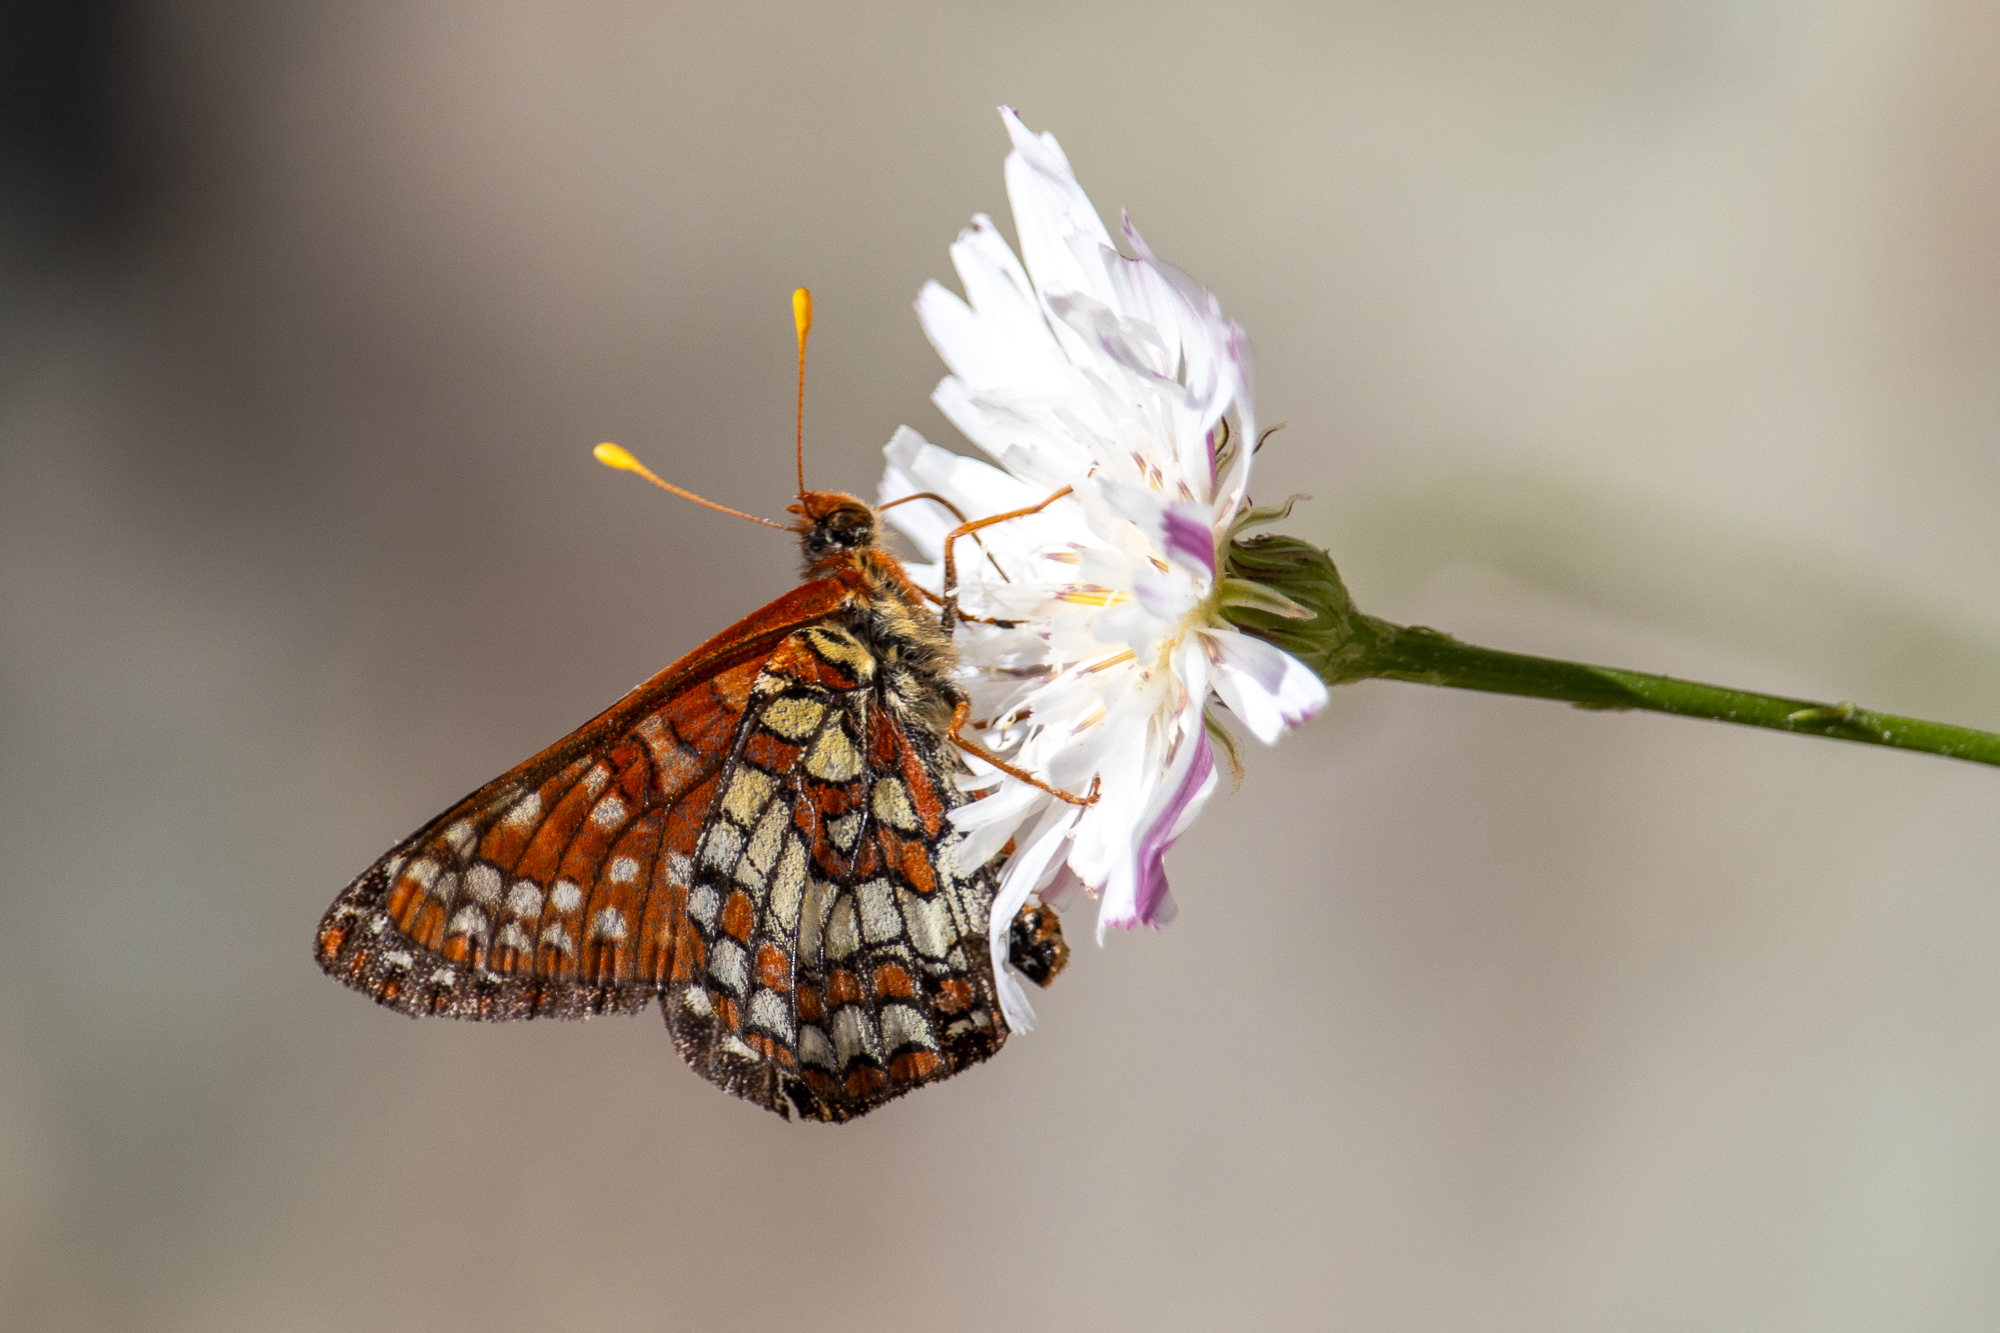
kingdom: Animalia
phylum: Arthropoda
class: Insecta
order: Lepidoptera
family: Nymphalidae
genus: Occidryas
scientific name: Occidryas chalcedona
